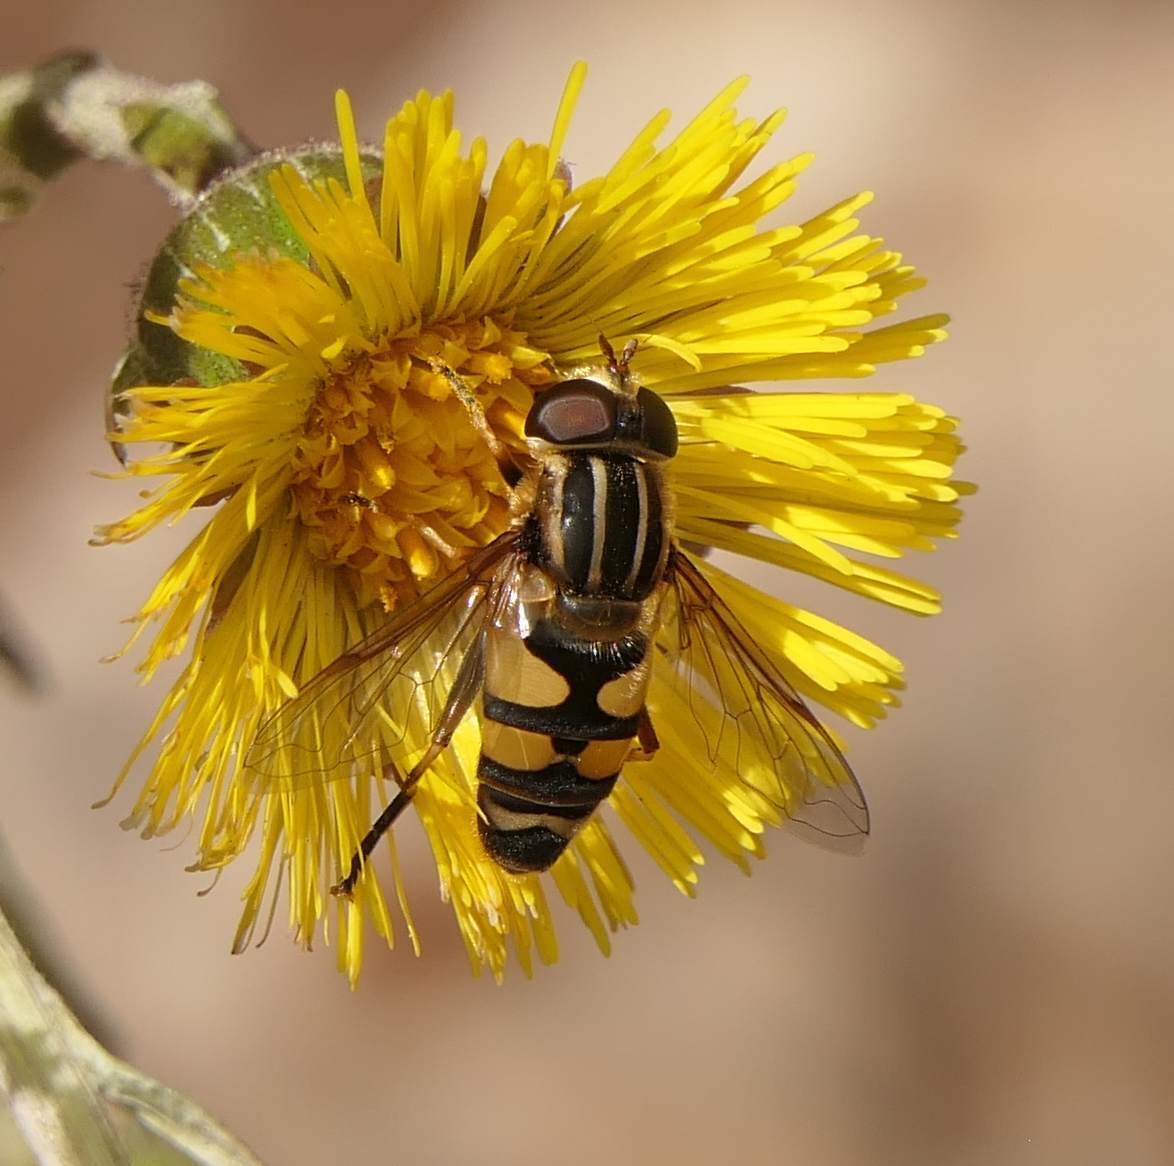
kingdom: Animalia
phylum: Arthropoda
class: Insecta
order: Diptera
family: Syrphidae
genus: Helophilus
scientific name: Helophilus fasciatus
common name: Narrow-headed marsh fly
